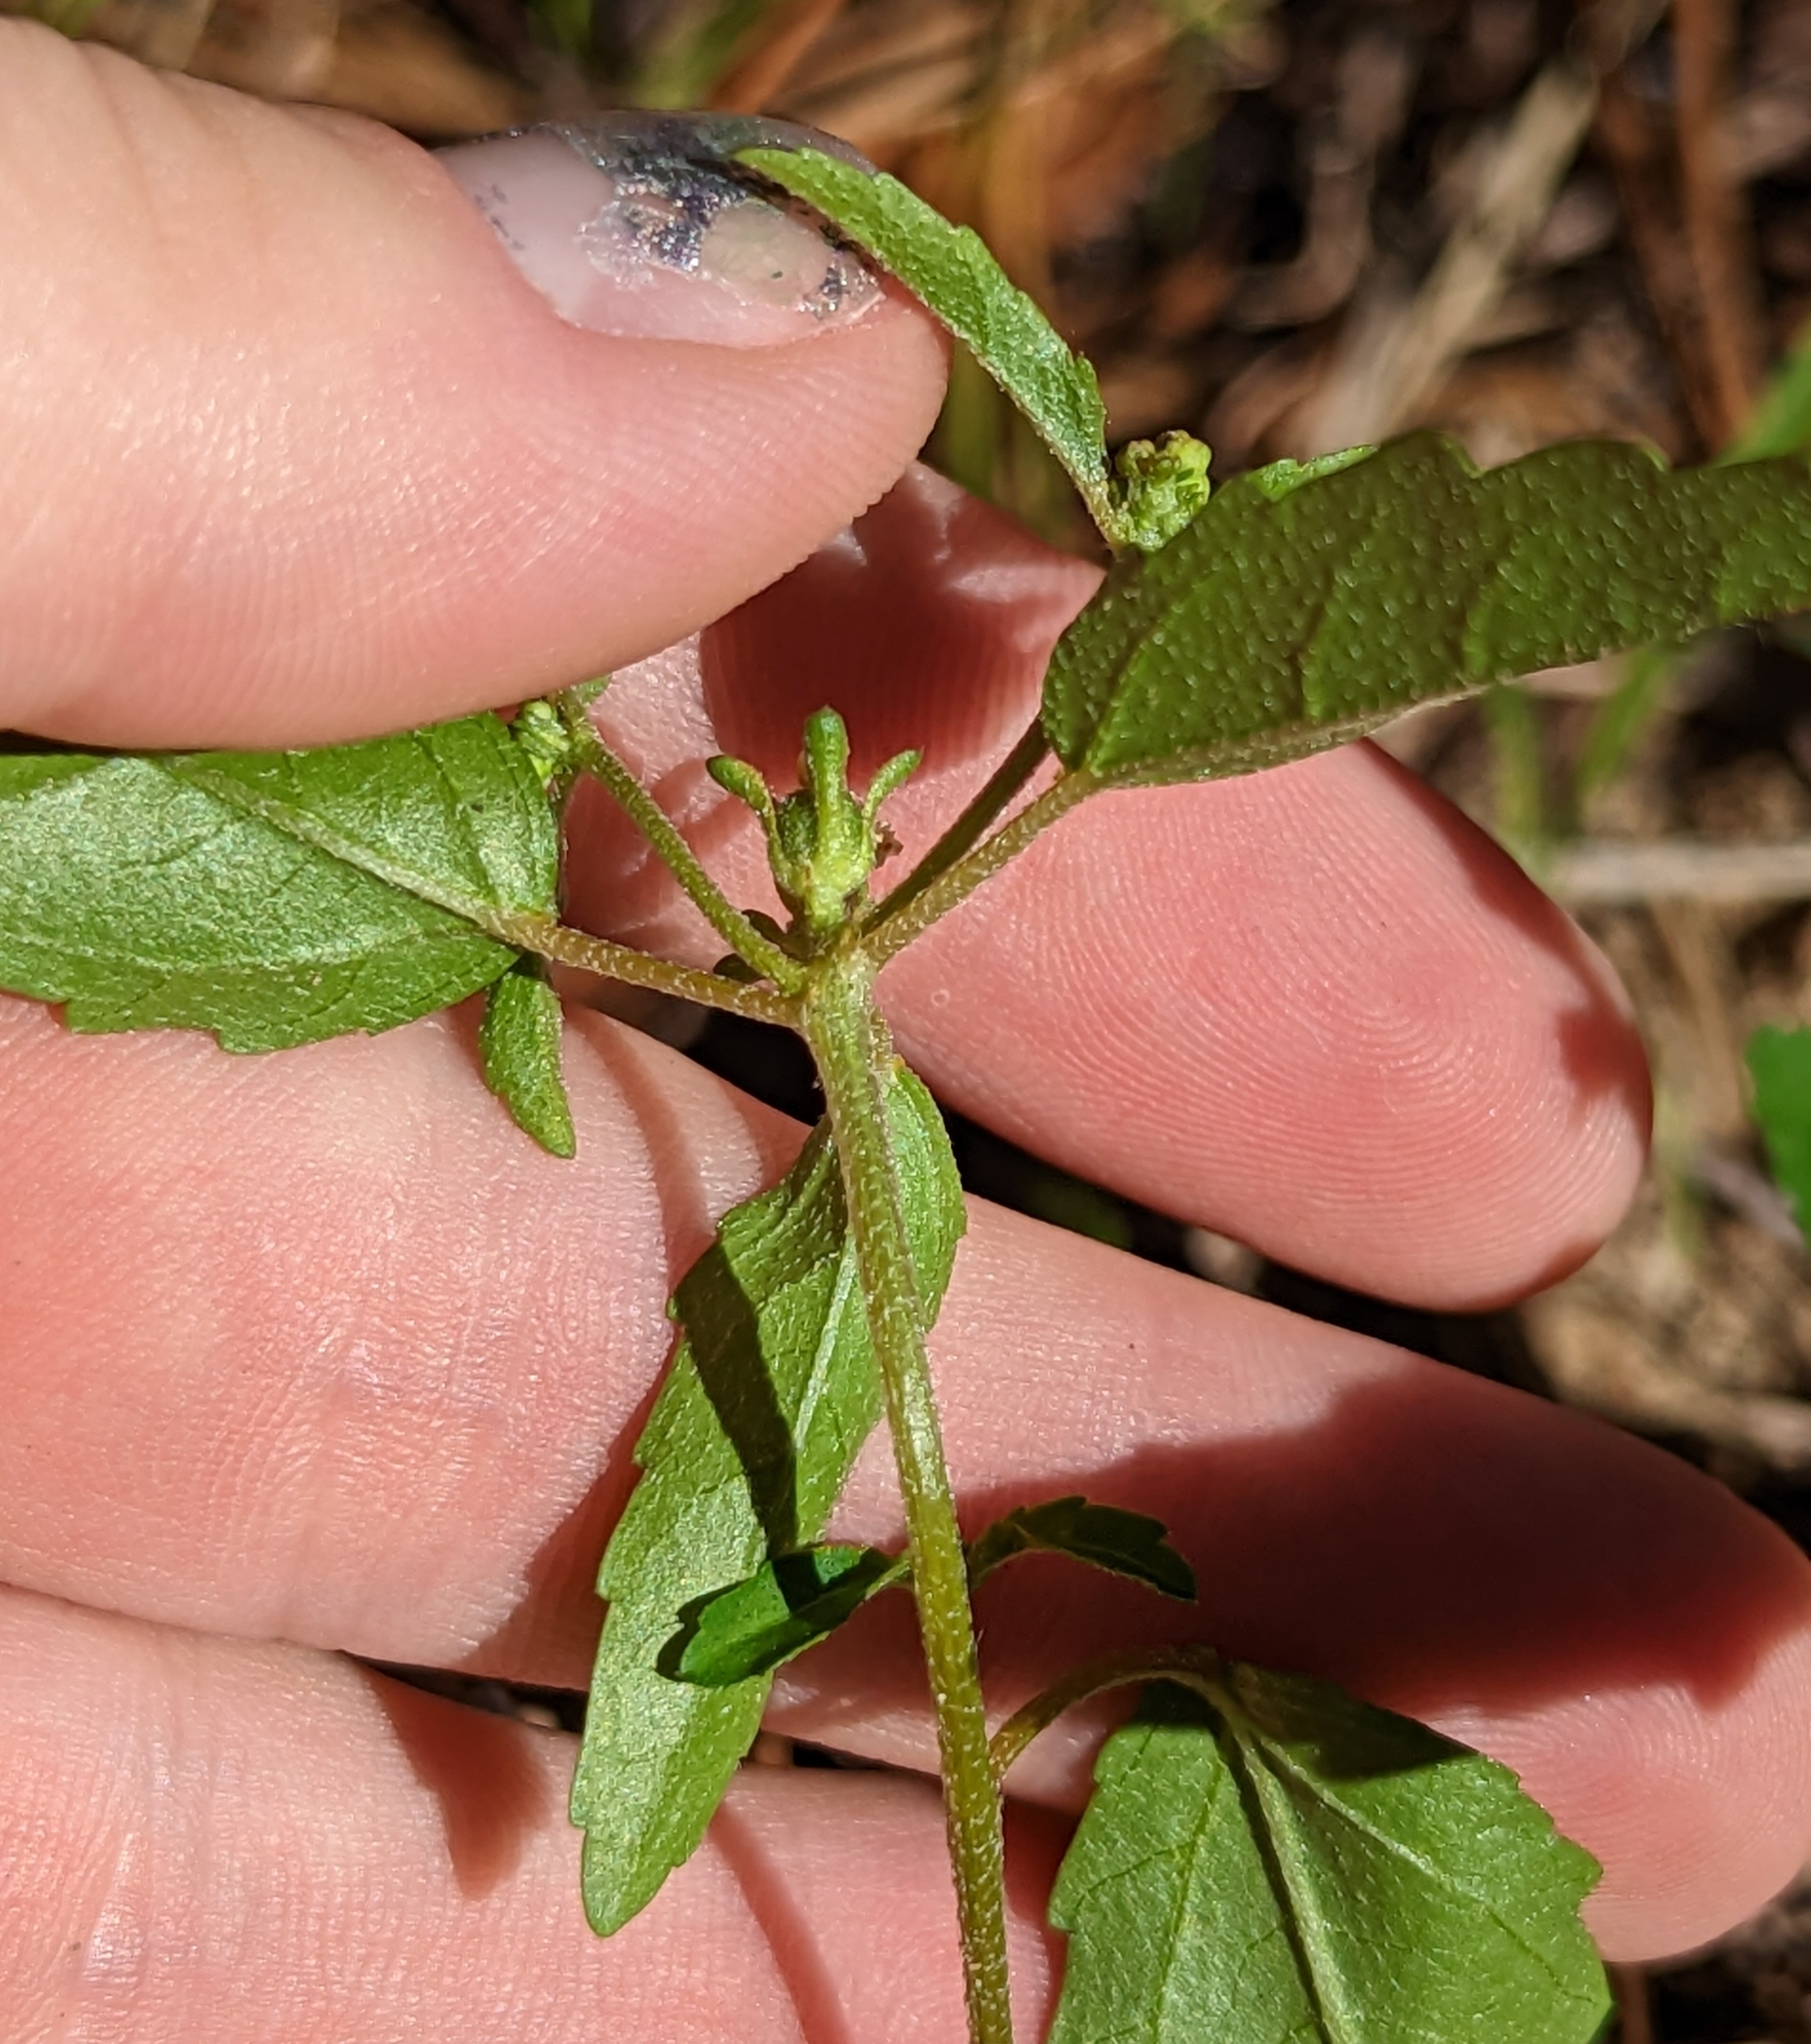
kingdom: Plantae
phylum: Tracheophyta
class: Magnoliopsida
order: Malpighiales
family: Euphorbiaceae
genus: Croton
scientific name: Croton glandulosus
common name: Tropic croton
